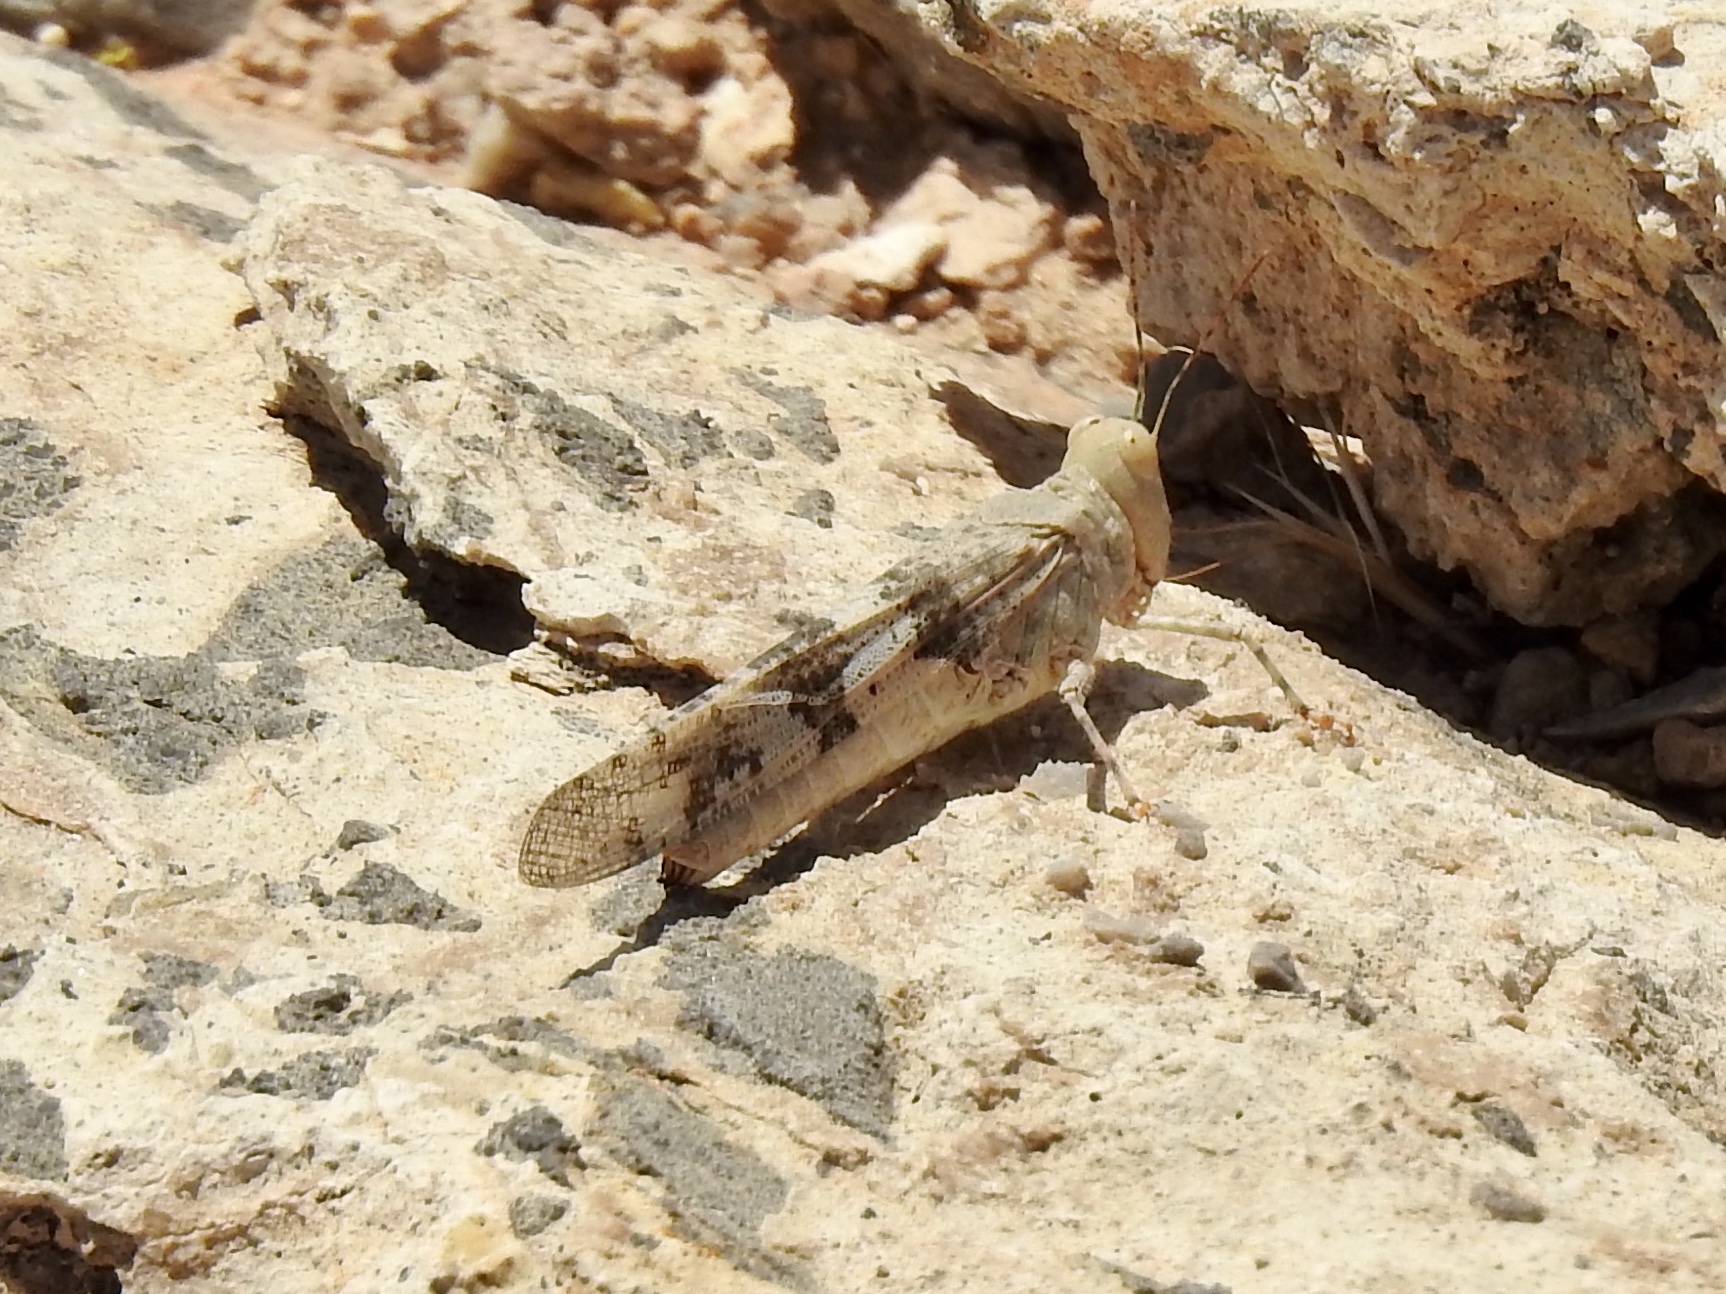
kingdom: Animalia
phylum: Arthropoda
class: Insecta
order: Orthoptera
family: Acrididae
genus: Trimerotropis
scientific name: Trimerotropis pallidipennis
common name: Pallid-winged grasshopper
